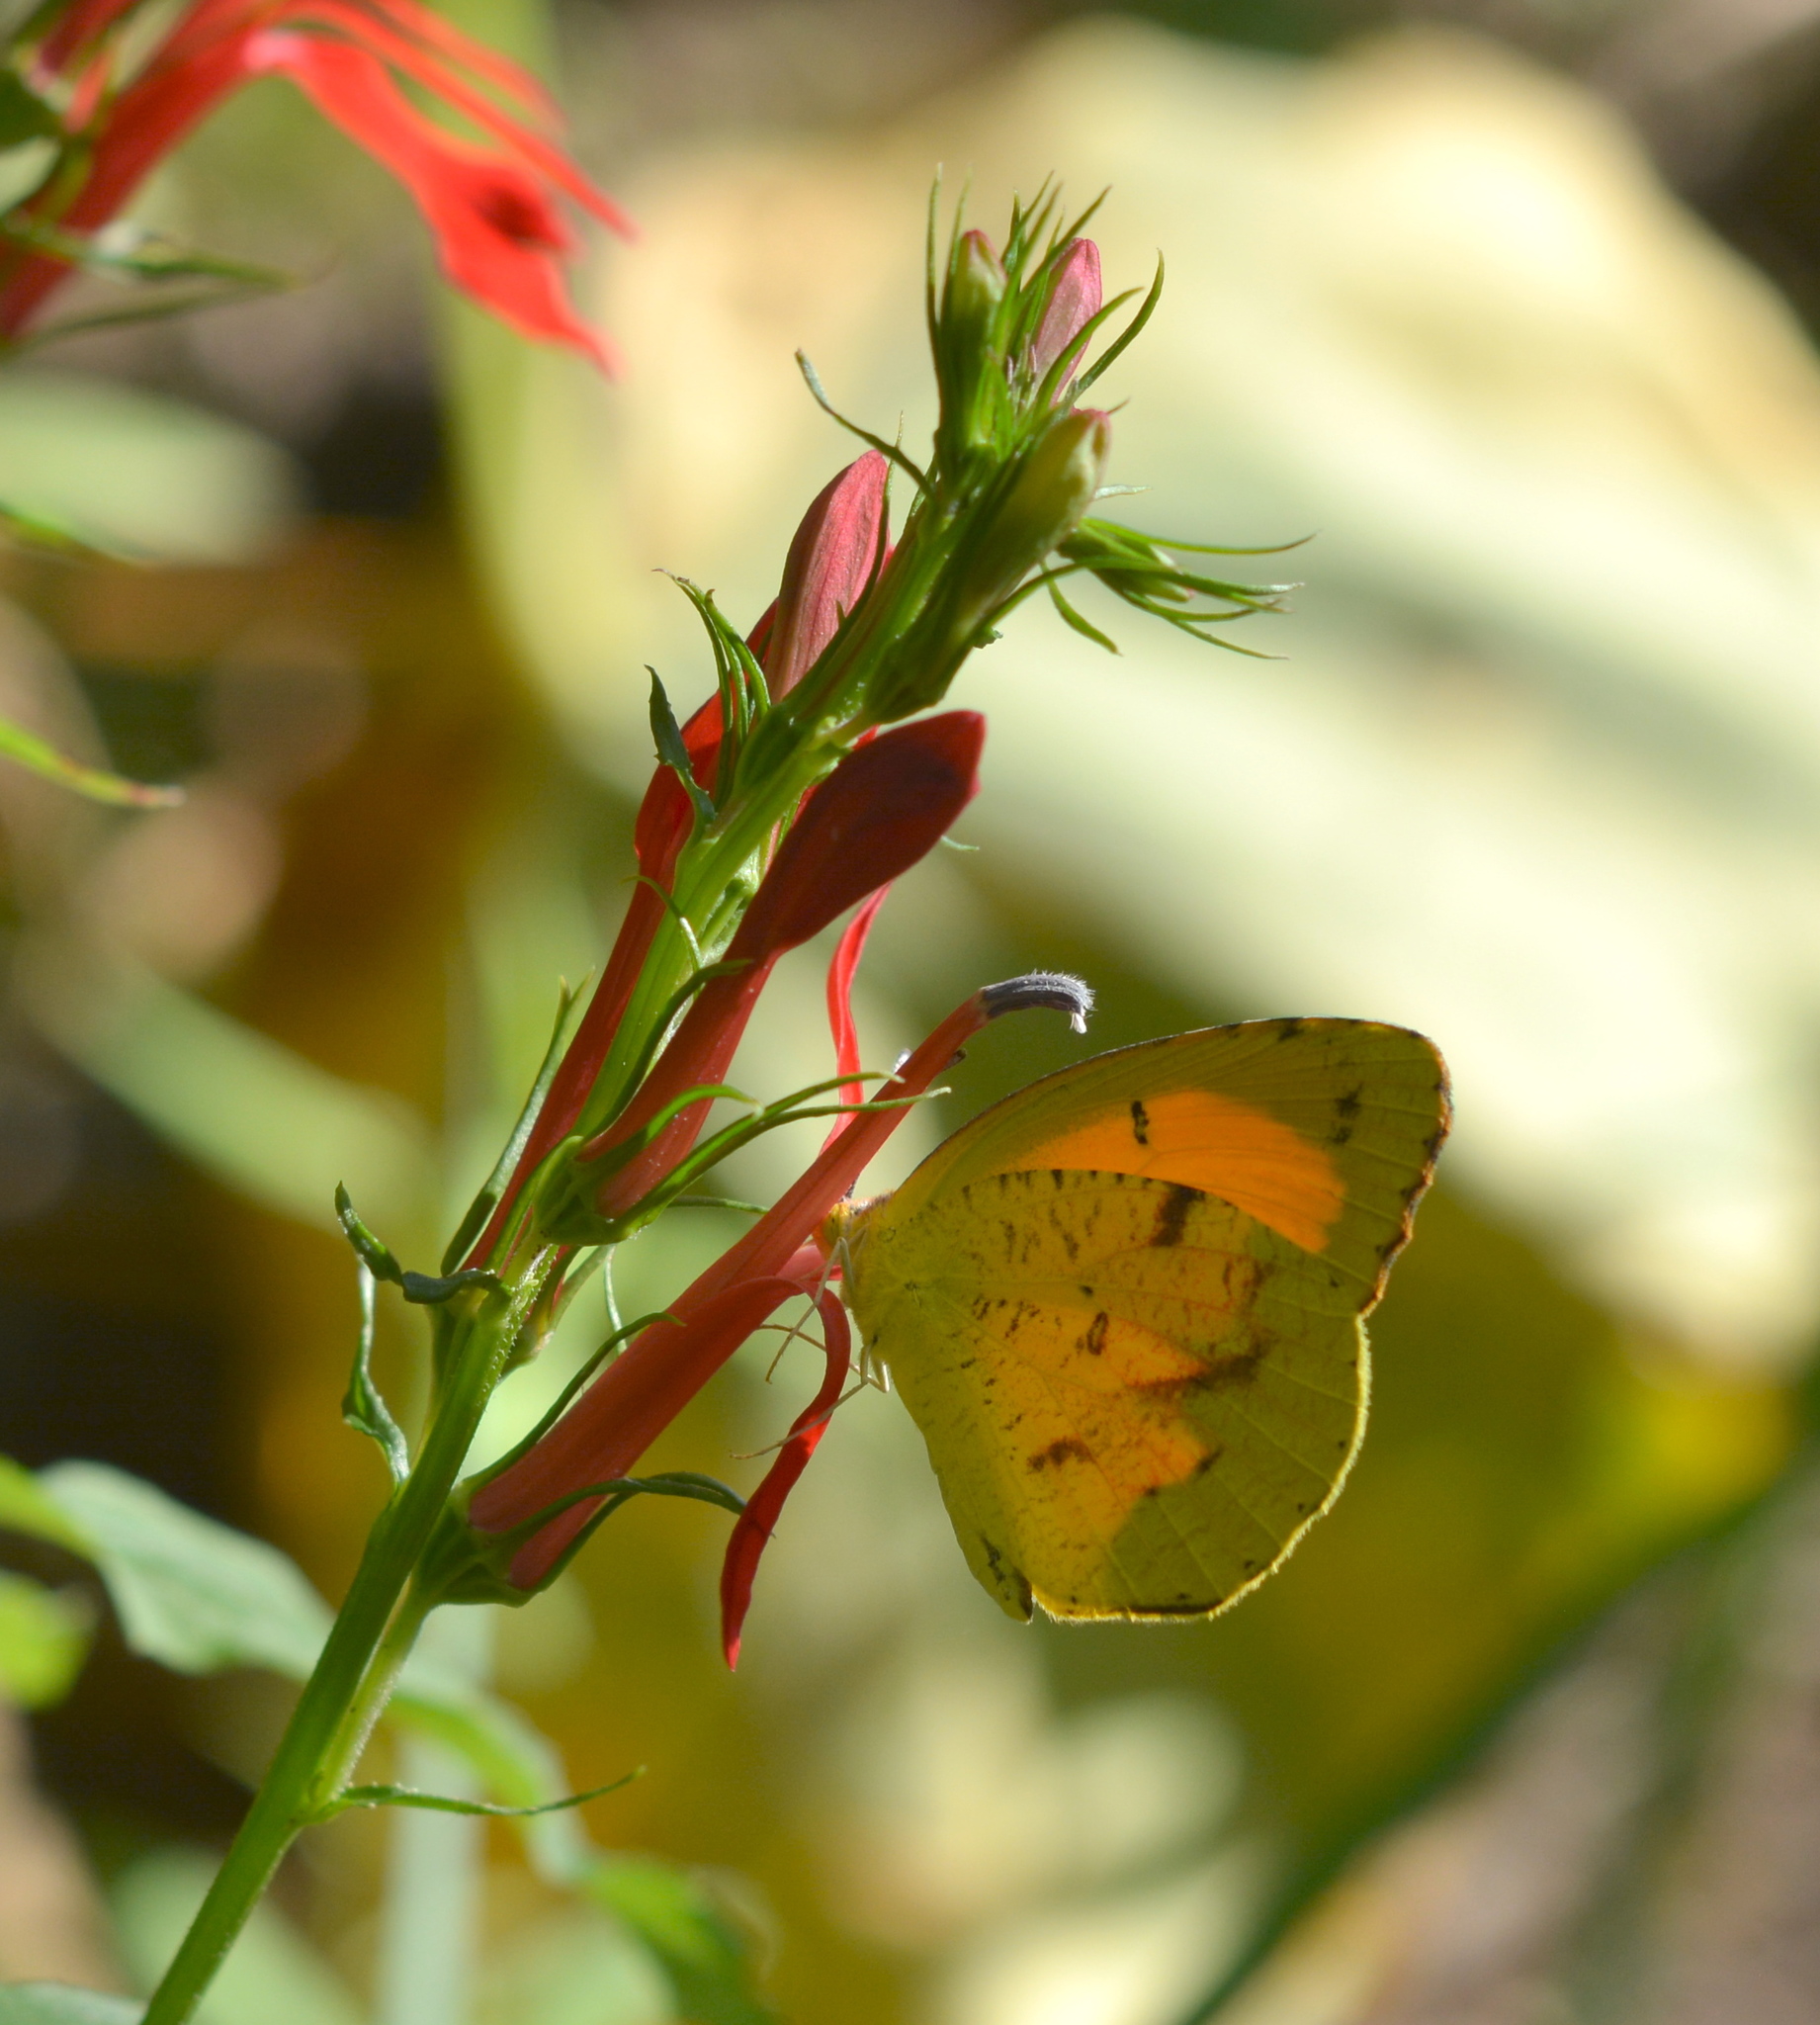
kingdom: Animalia
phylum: Arthropoda
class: Insecta
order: Lepidoptera
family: Pieridae
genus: Abaeis
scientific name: Abaeis nicippe
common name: Sleepy orange
